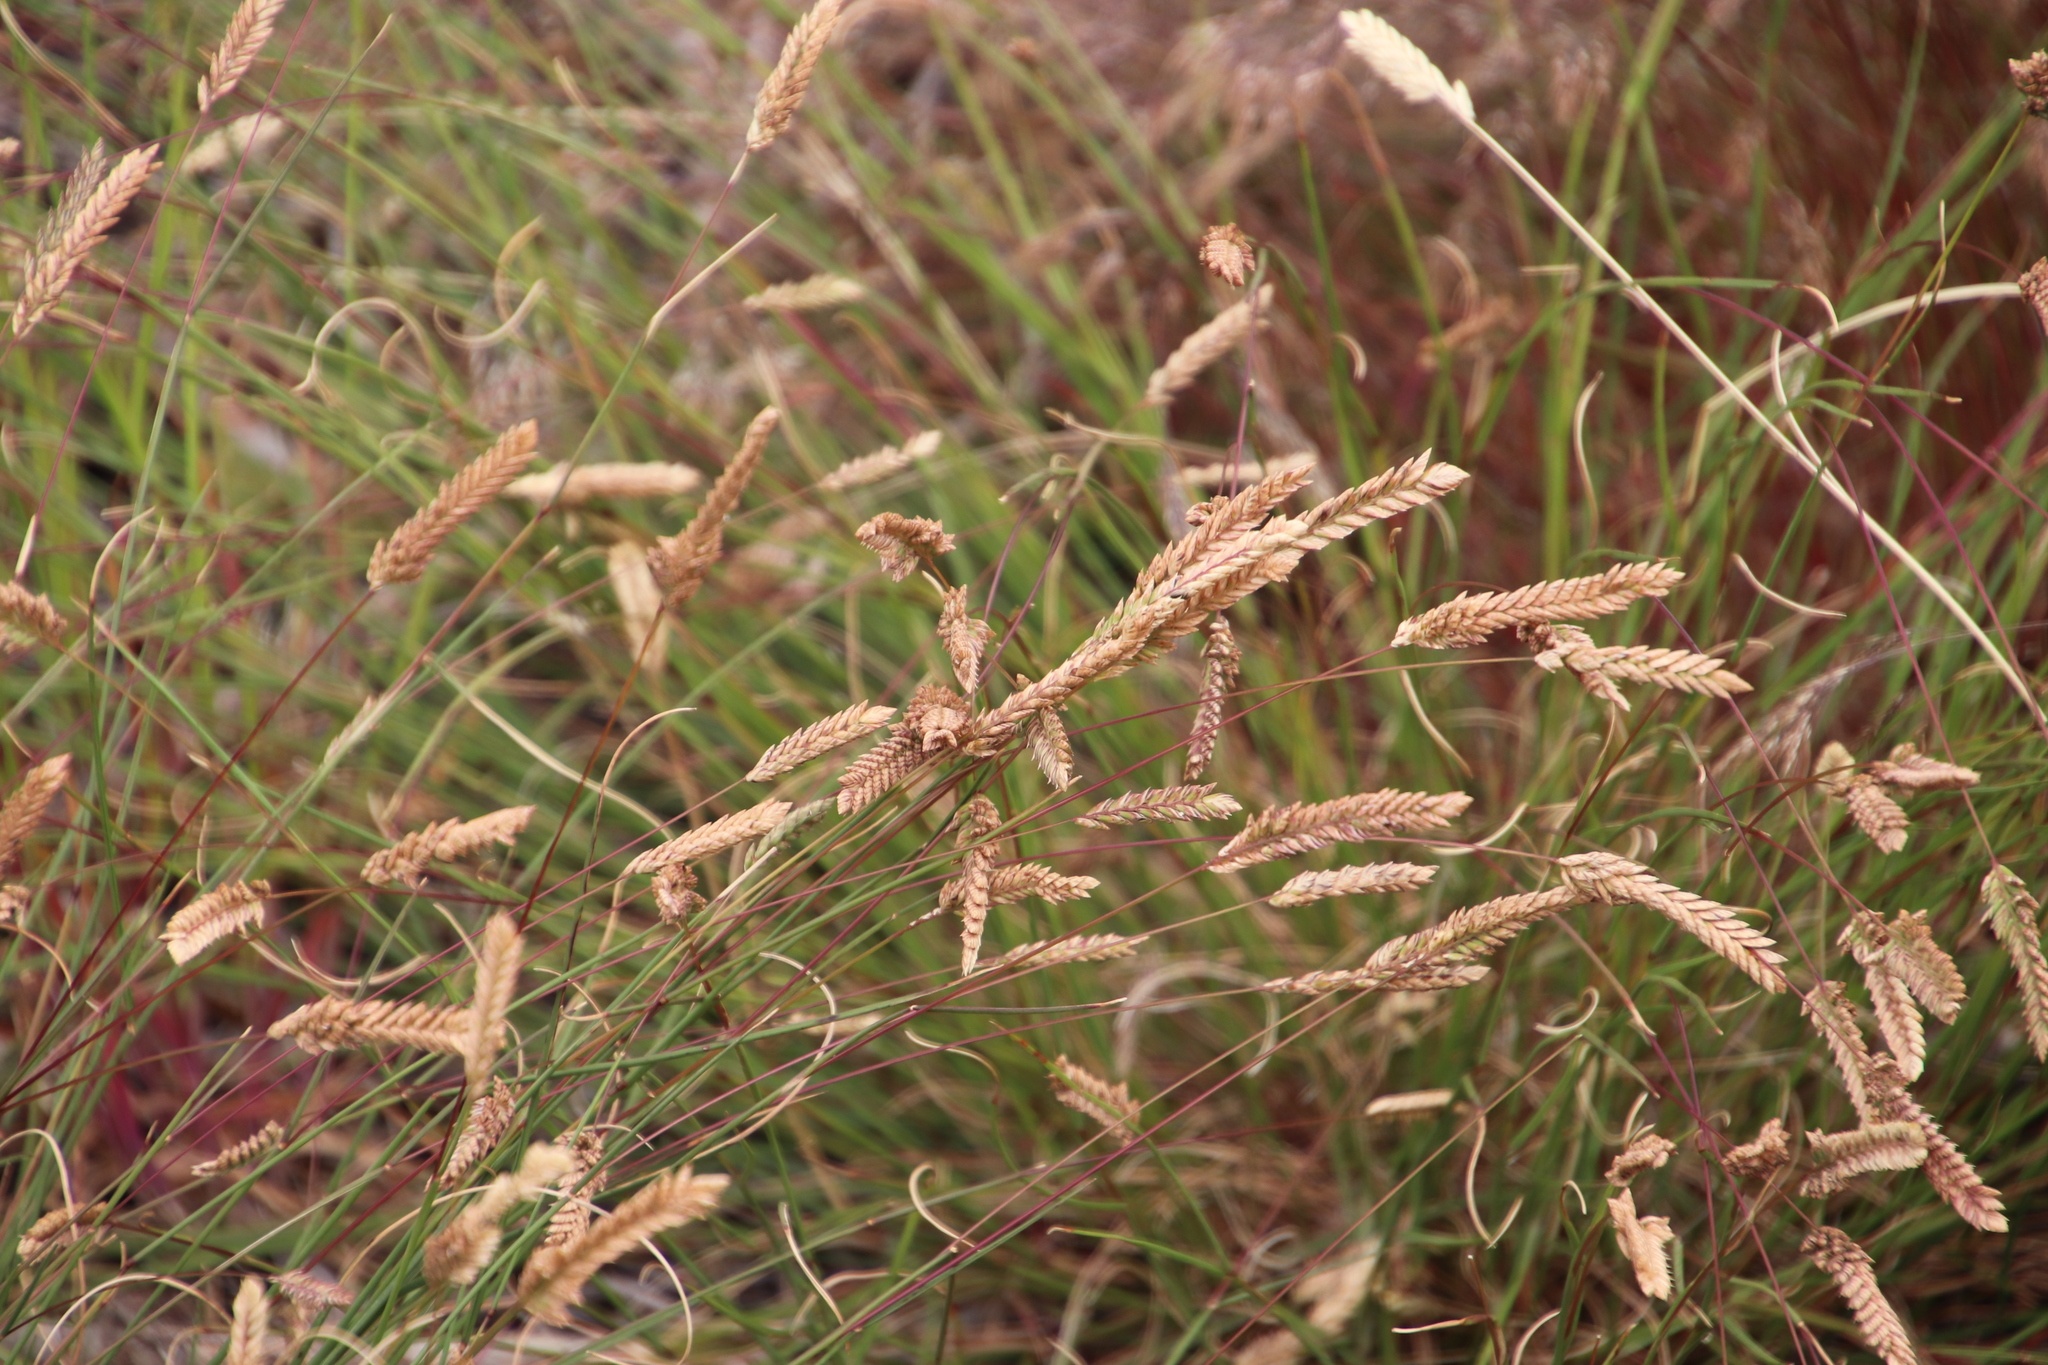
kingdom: Plantae
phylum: Tracheophyta
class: Liliopsida
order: Poales
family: Poaceae
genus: Tribolium
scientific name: Tribolium uniolae
